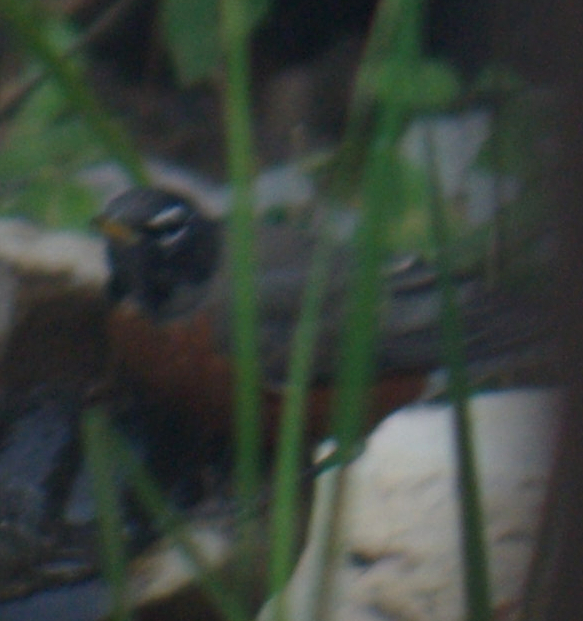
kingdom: Animalia
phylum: Chordata
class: Aves
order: Passeriformes
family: Turdidae
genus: Turdus
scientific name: Turdus migratorius
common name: American robin
